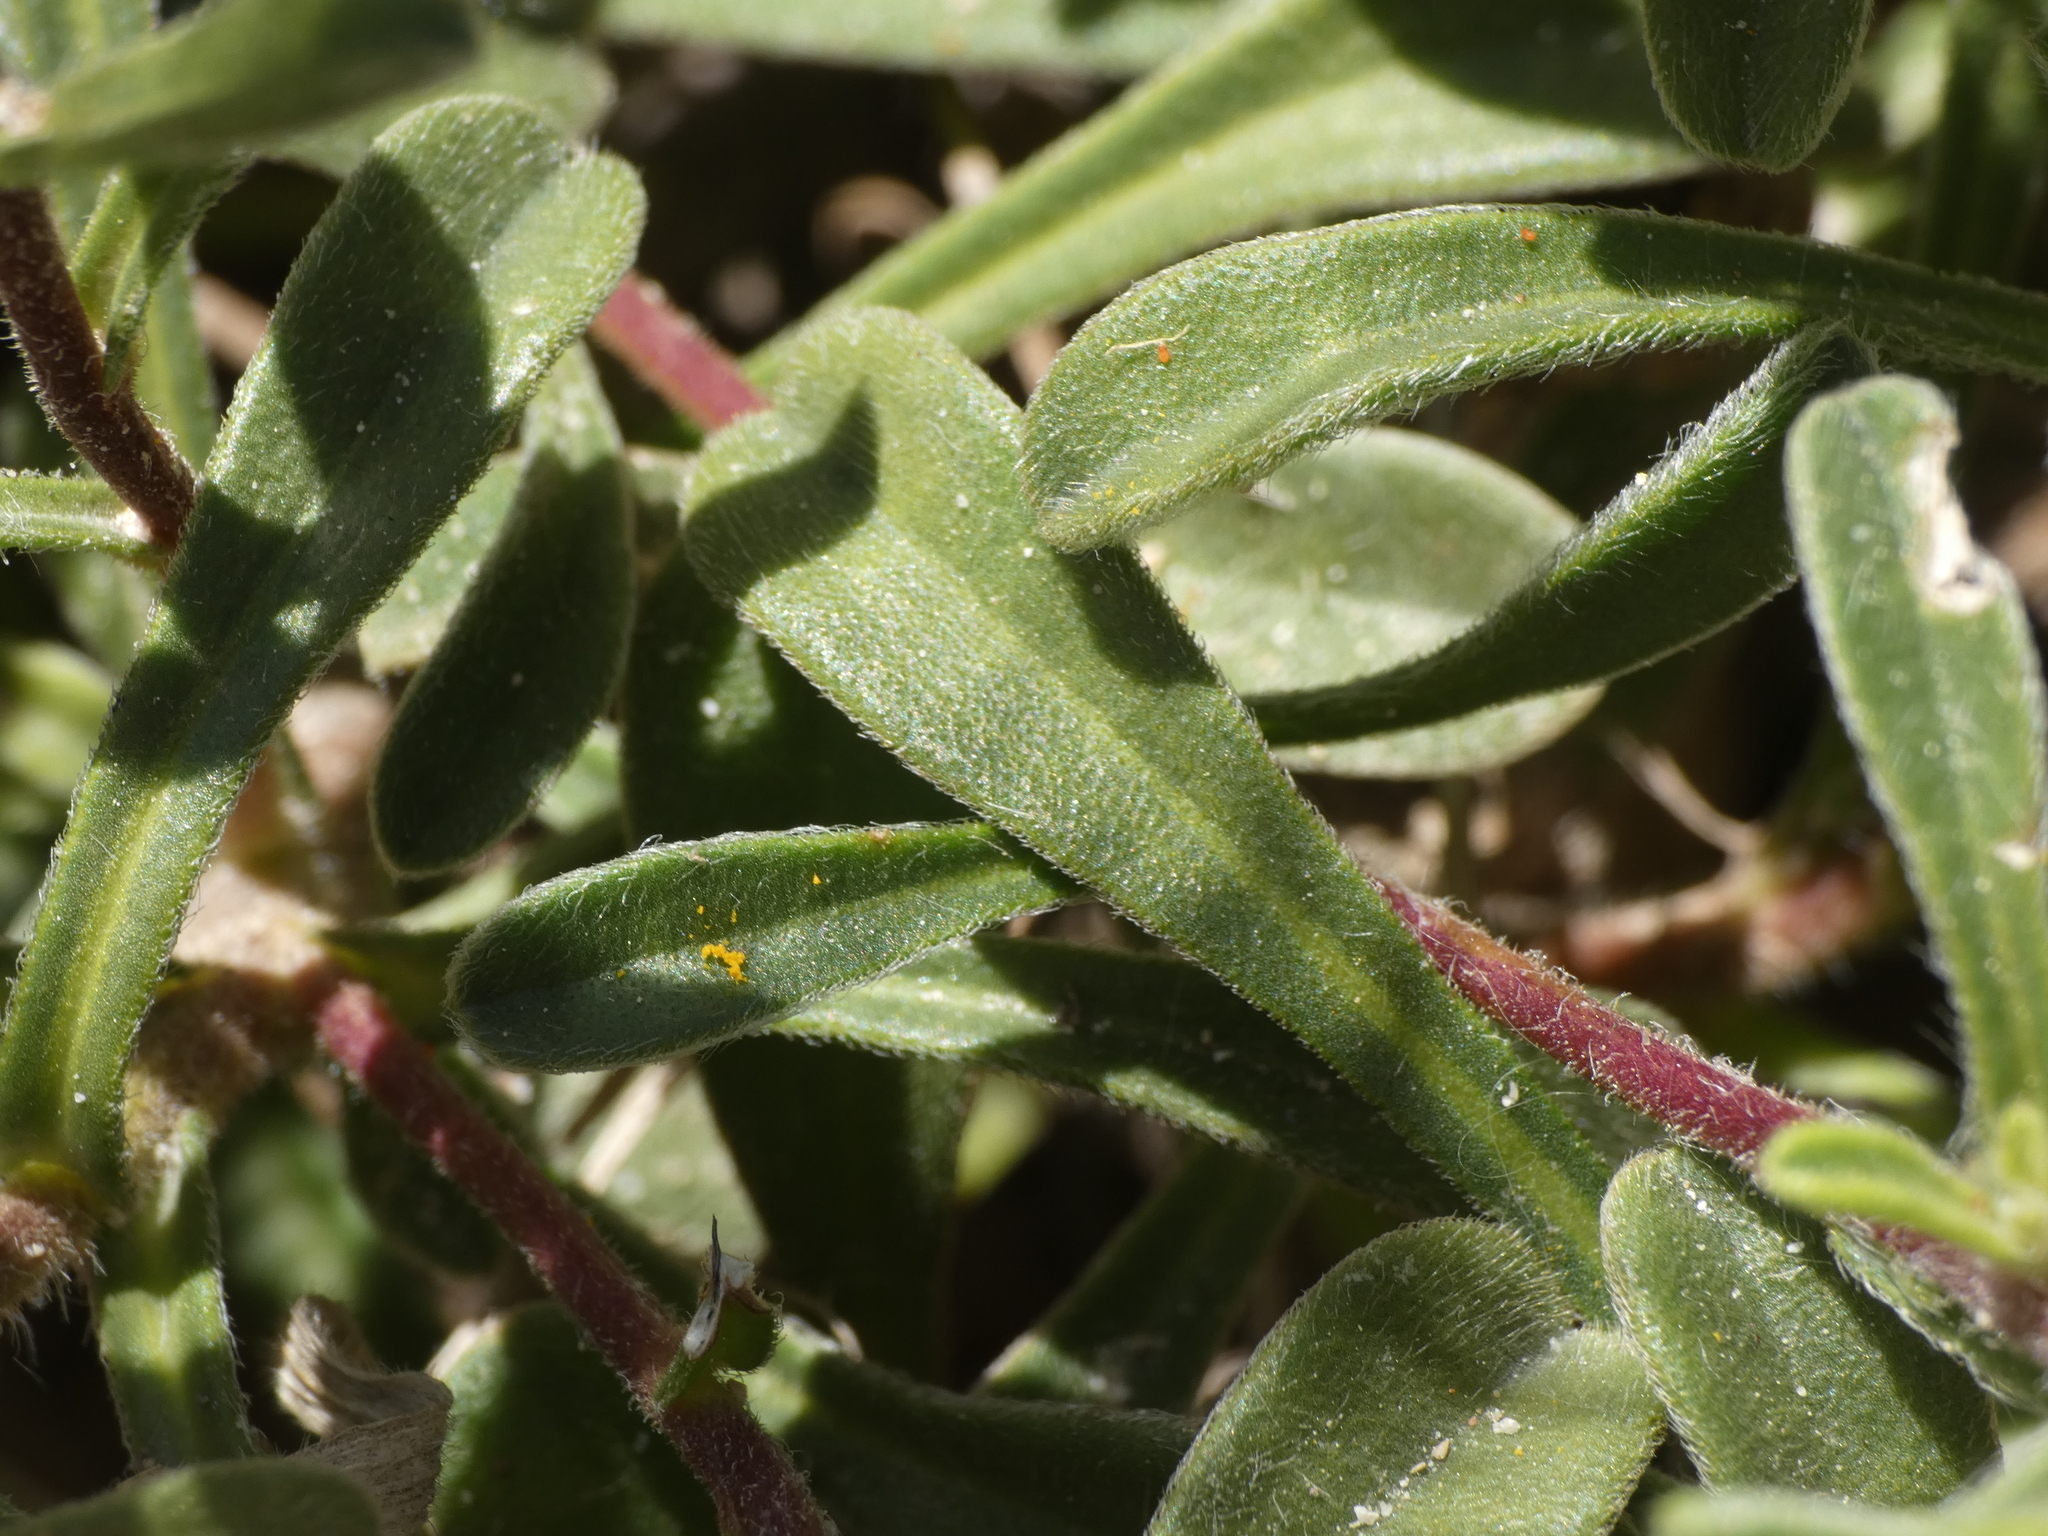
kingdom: Plantae
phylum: Tracheophyta
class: Magnoliopsida
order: Asterales
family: Asteraceae
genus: Pallenis
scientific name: Pallenis maritima
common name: Golden coin daisy
